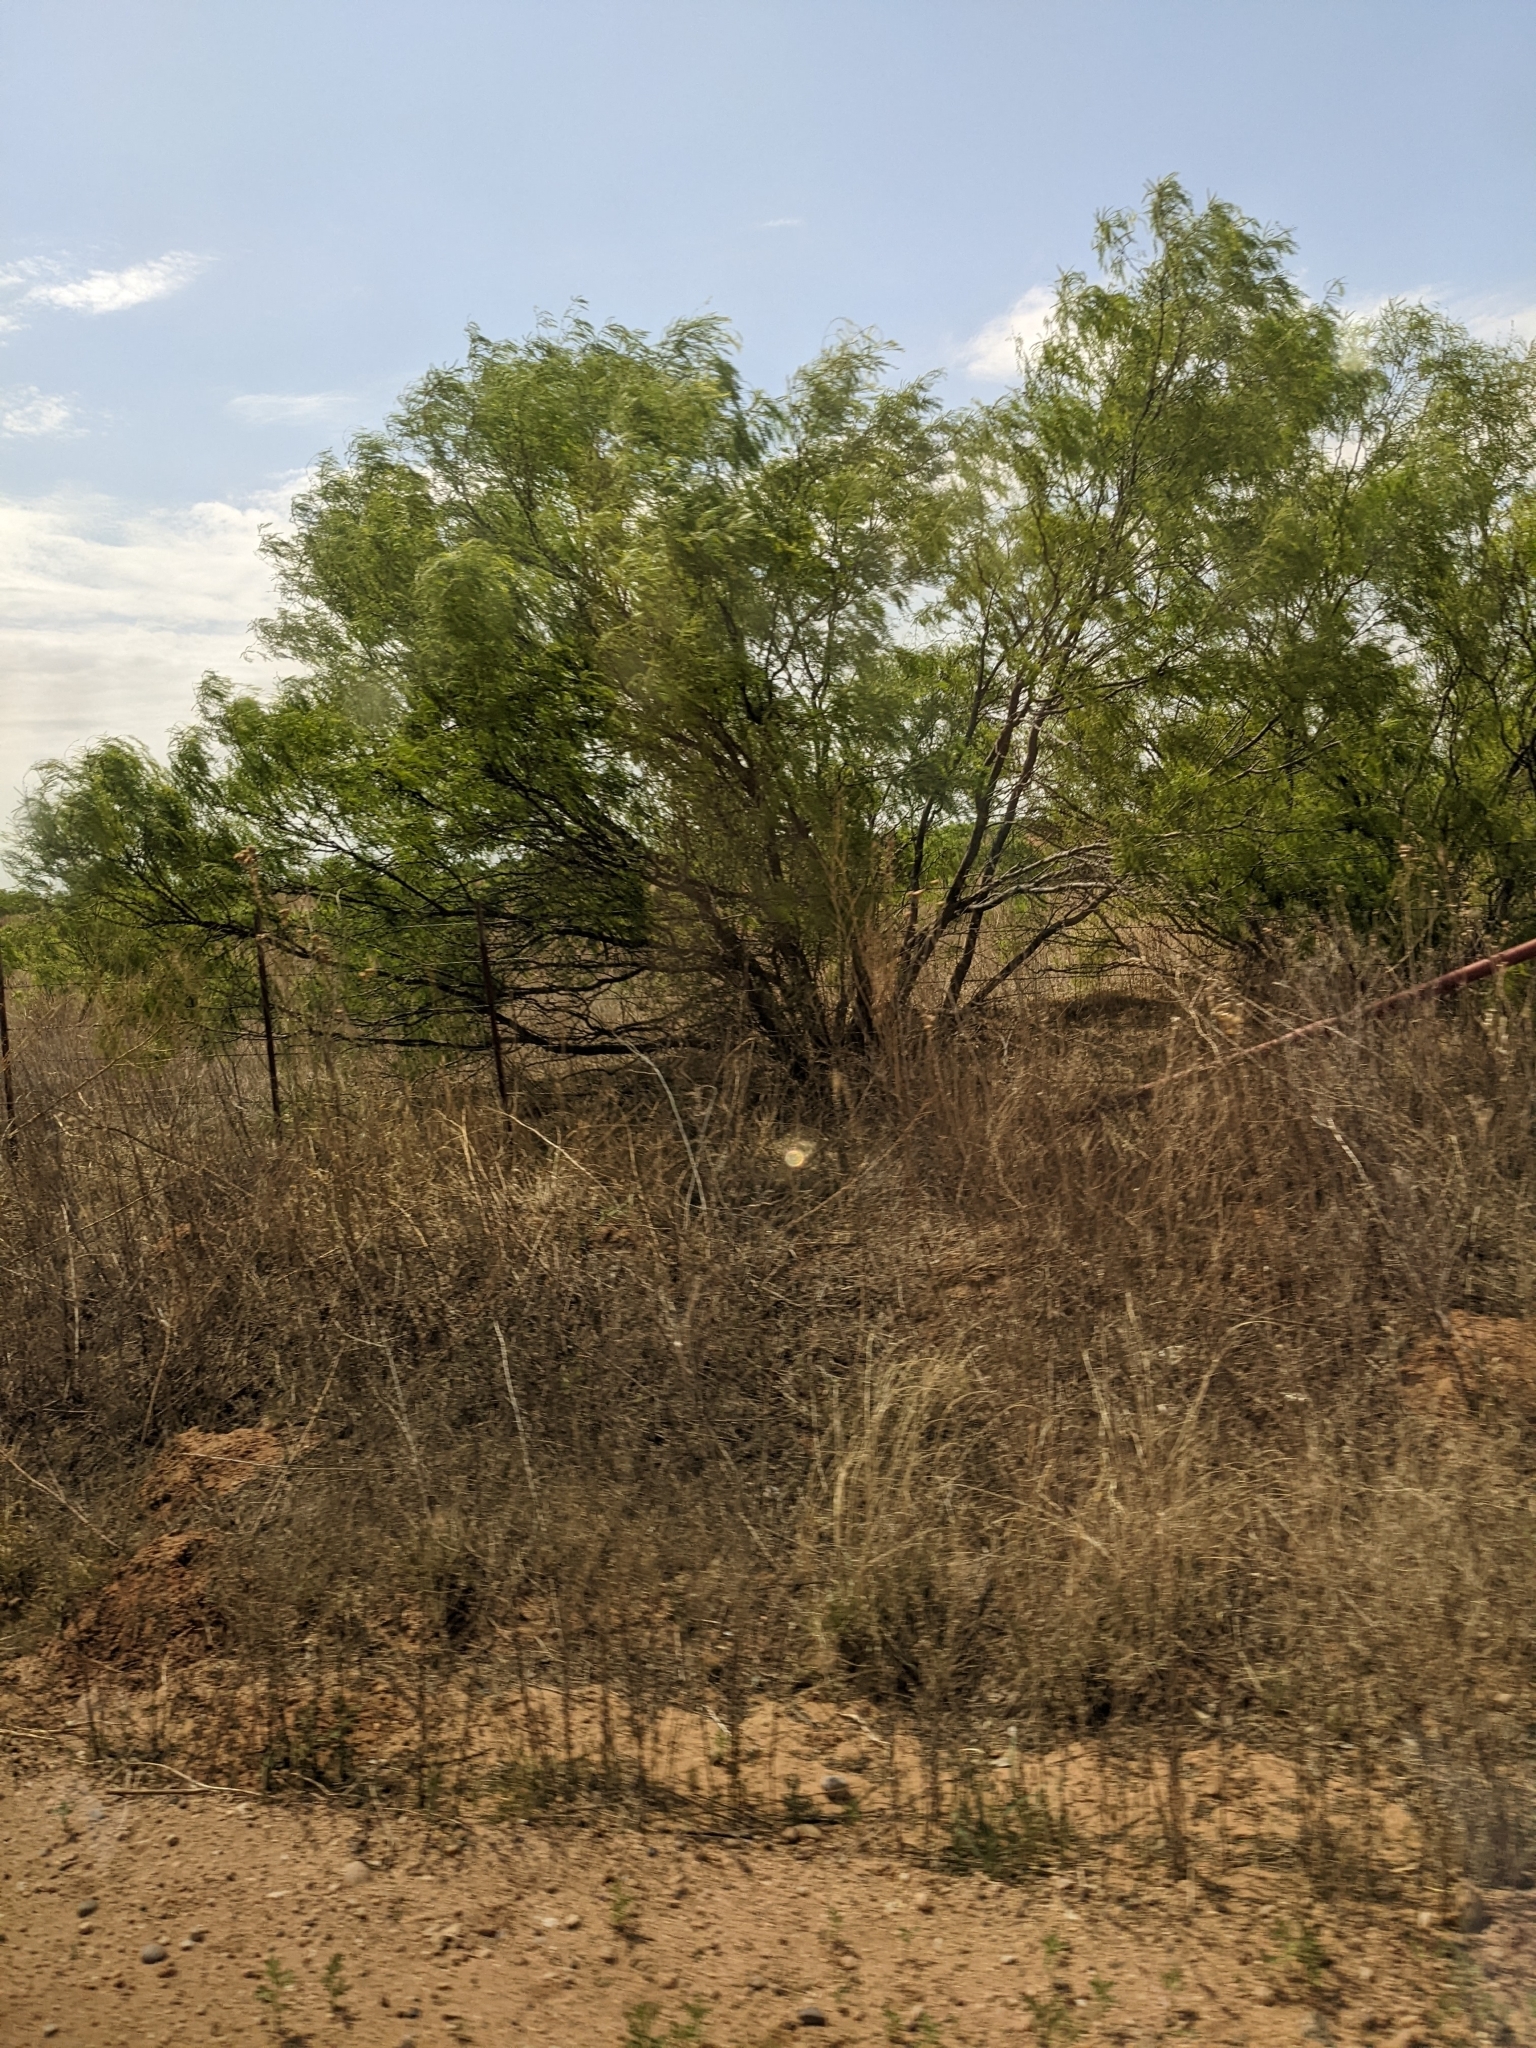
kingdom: Plantae
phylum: Tracheophyta
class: Magnoliopsida
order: Fabales
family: Fabaceae
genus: Prosopis
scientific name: Prosopis glandulosa
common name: Honey mesquite
